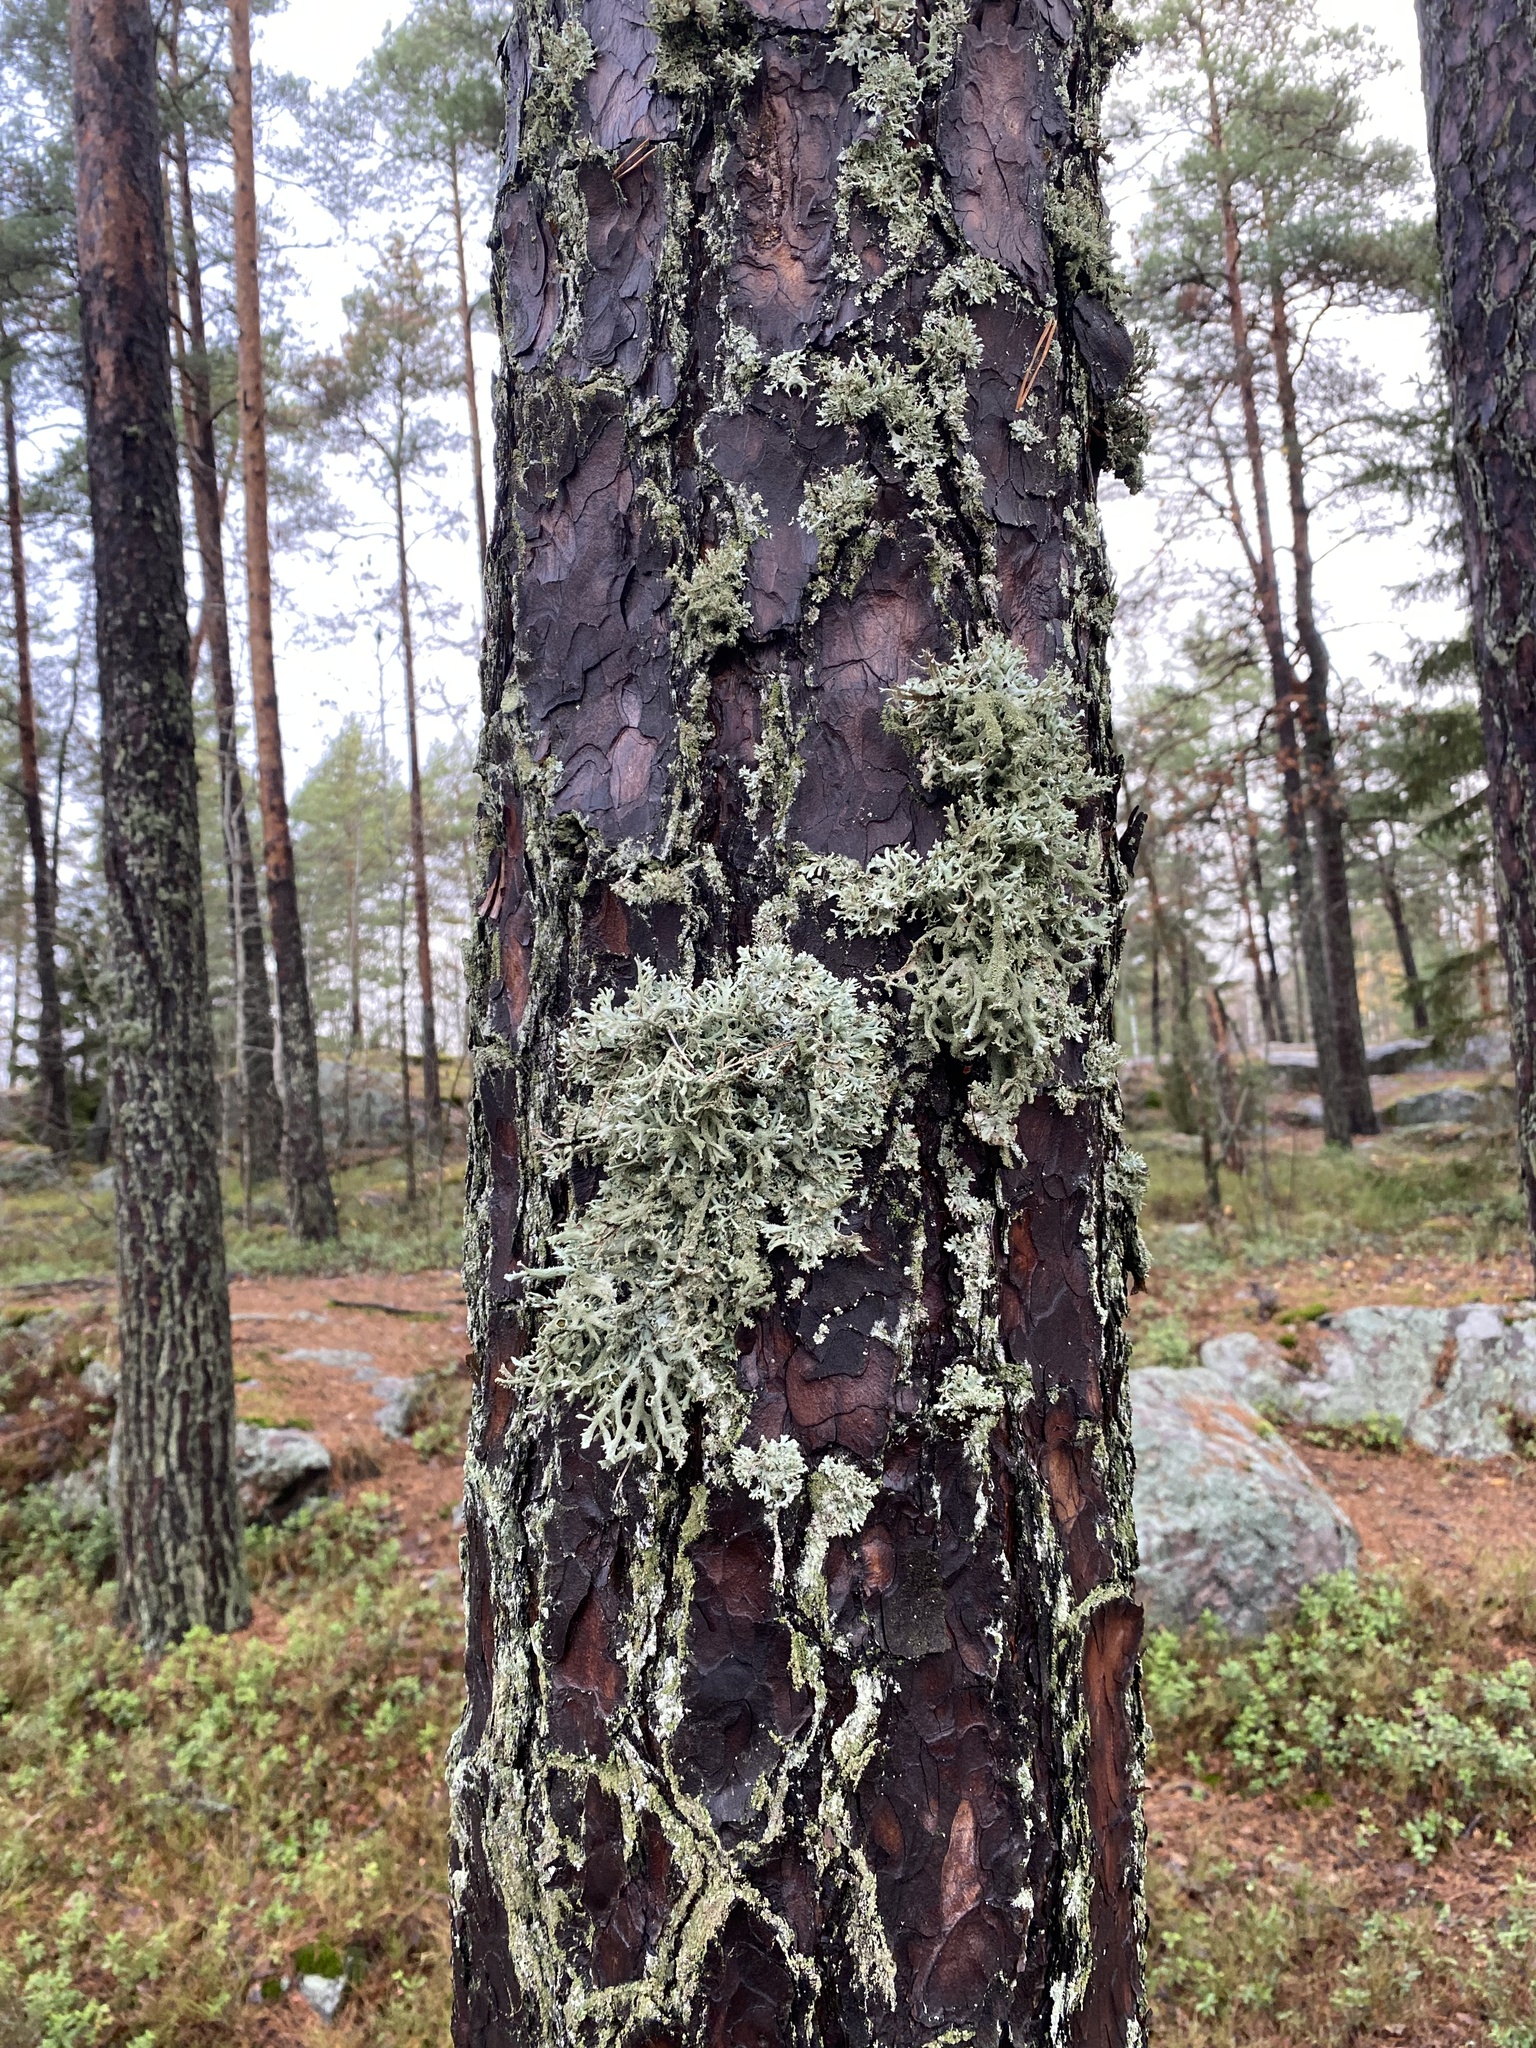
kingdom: Fungi
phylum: Ascomycota
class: Lecanoromycetes
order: Lecanorales
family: Parmeliaceae
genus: Pseudevernia
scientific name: Pseudevernia furfuracea
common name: Tree moss
